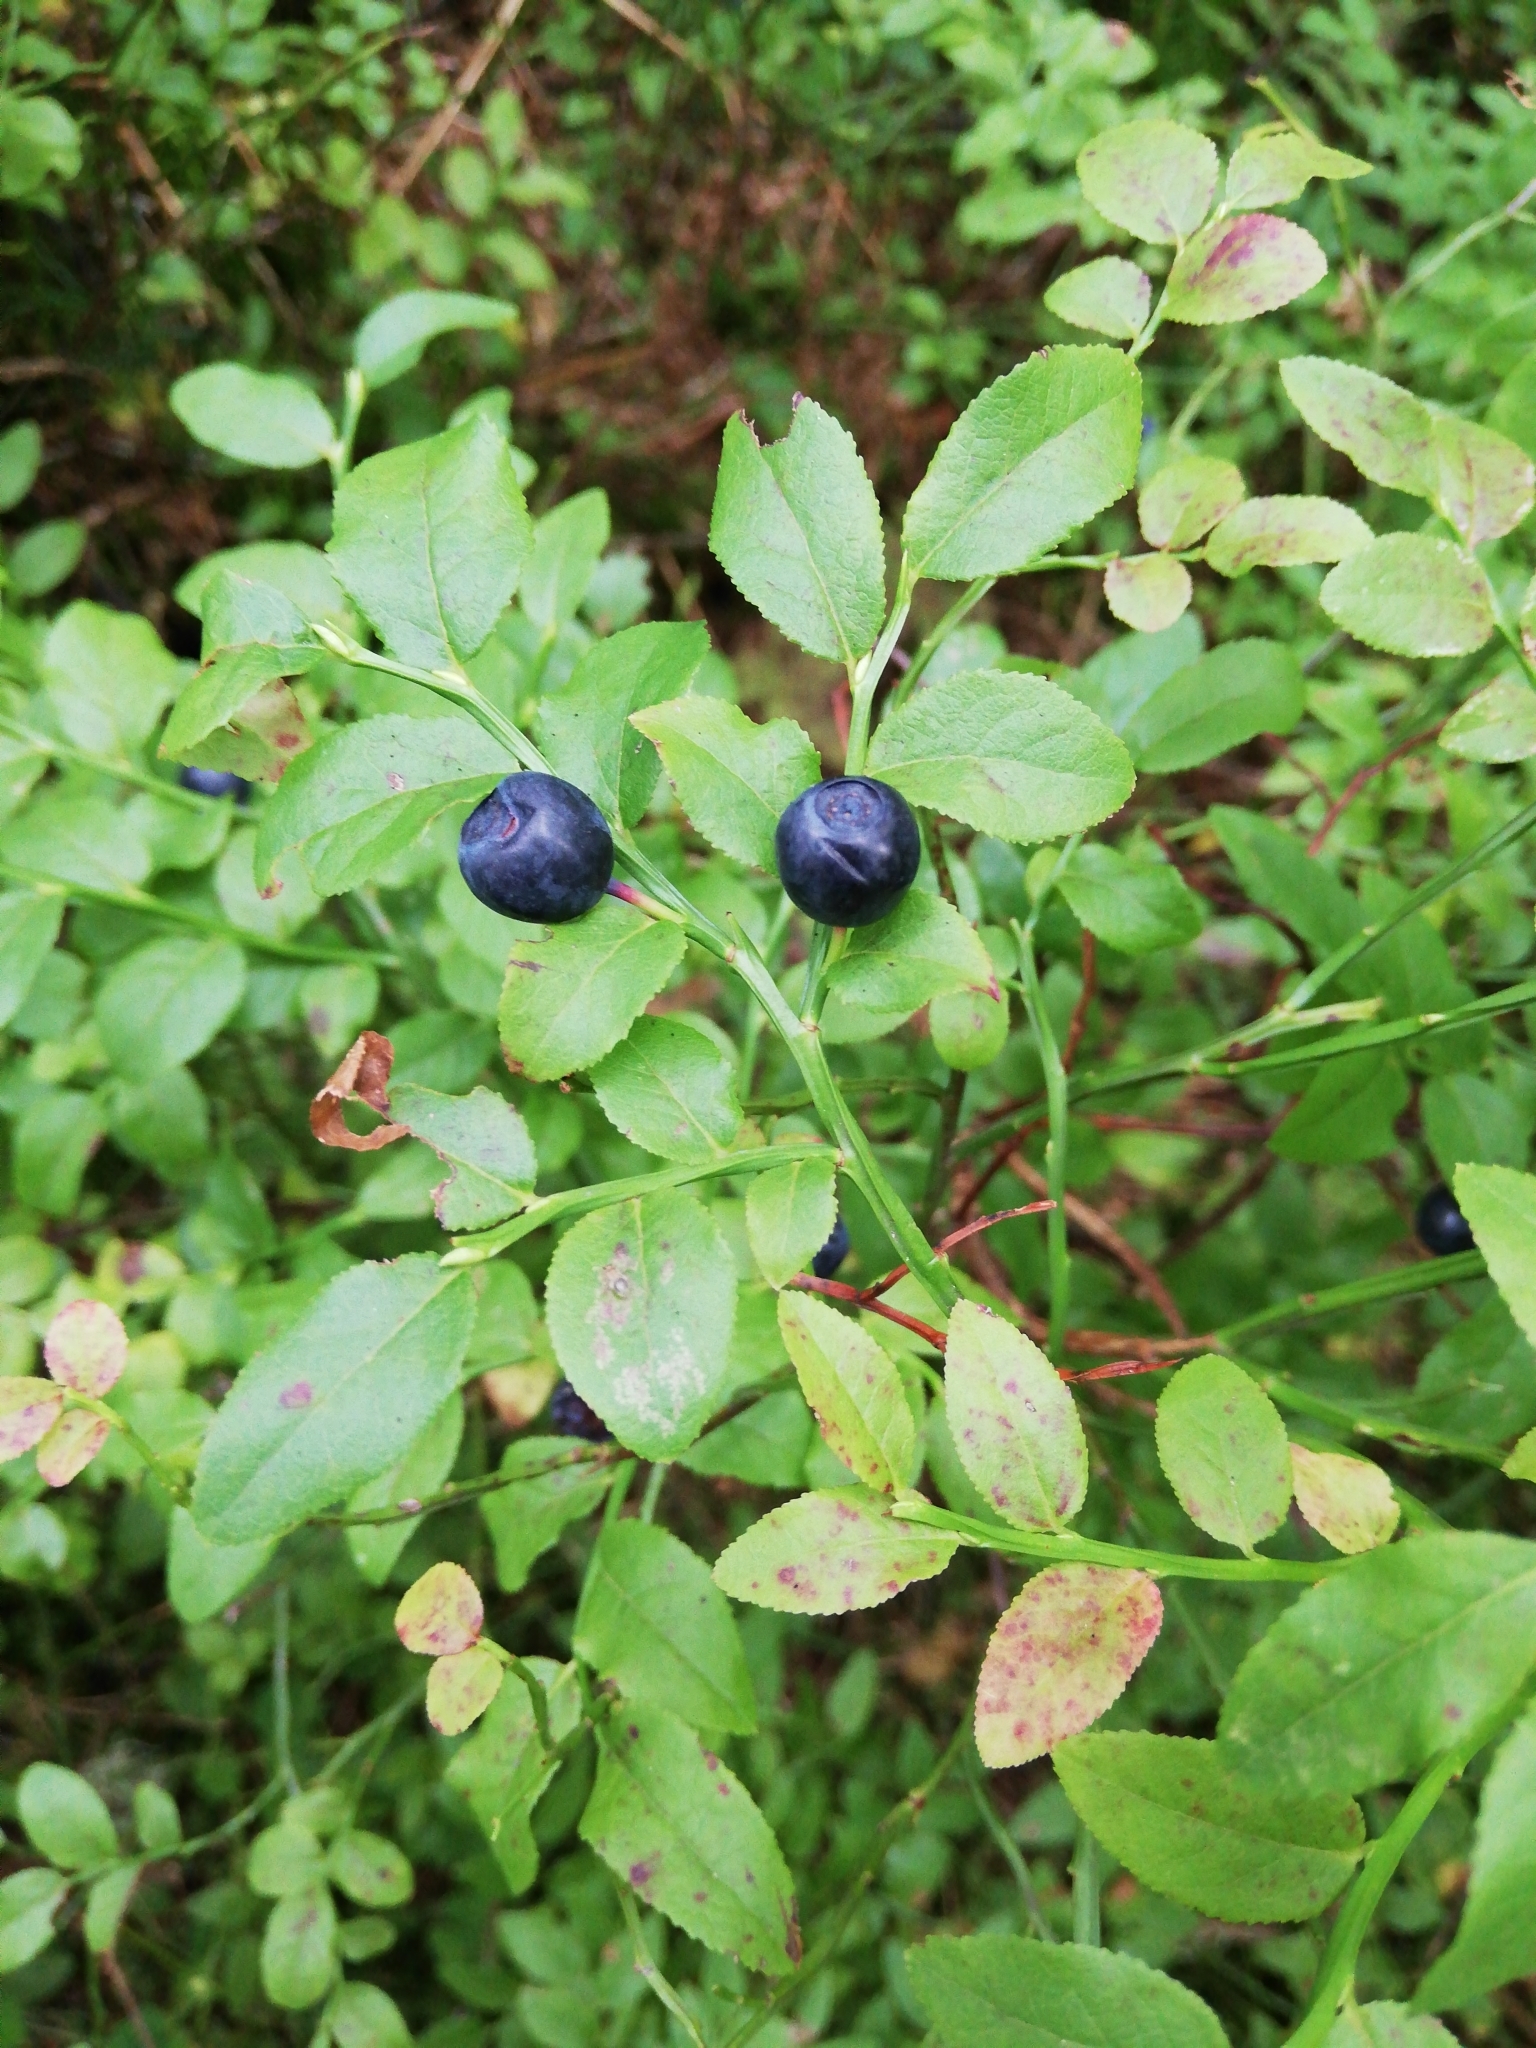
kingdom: Plantae
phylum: Tracheophyta
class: Magnoliopsida
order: Ericales
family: Ericaceae
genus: Vaccinium
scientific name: Vaccinium myrtillus
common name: Bilberry
